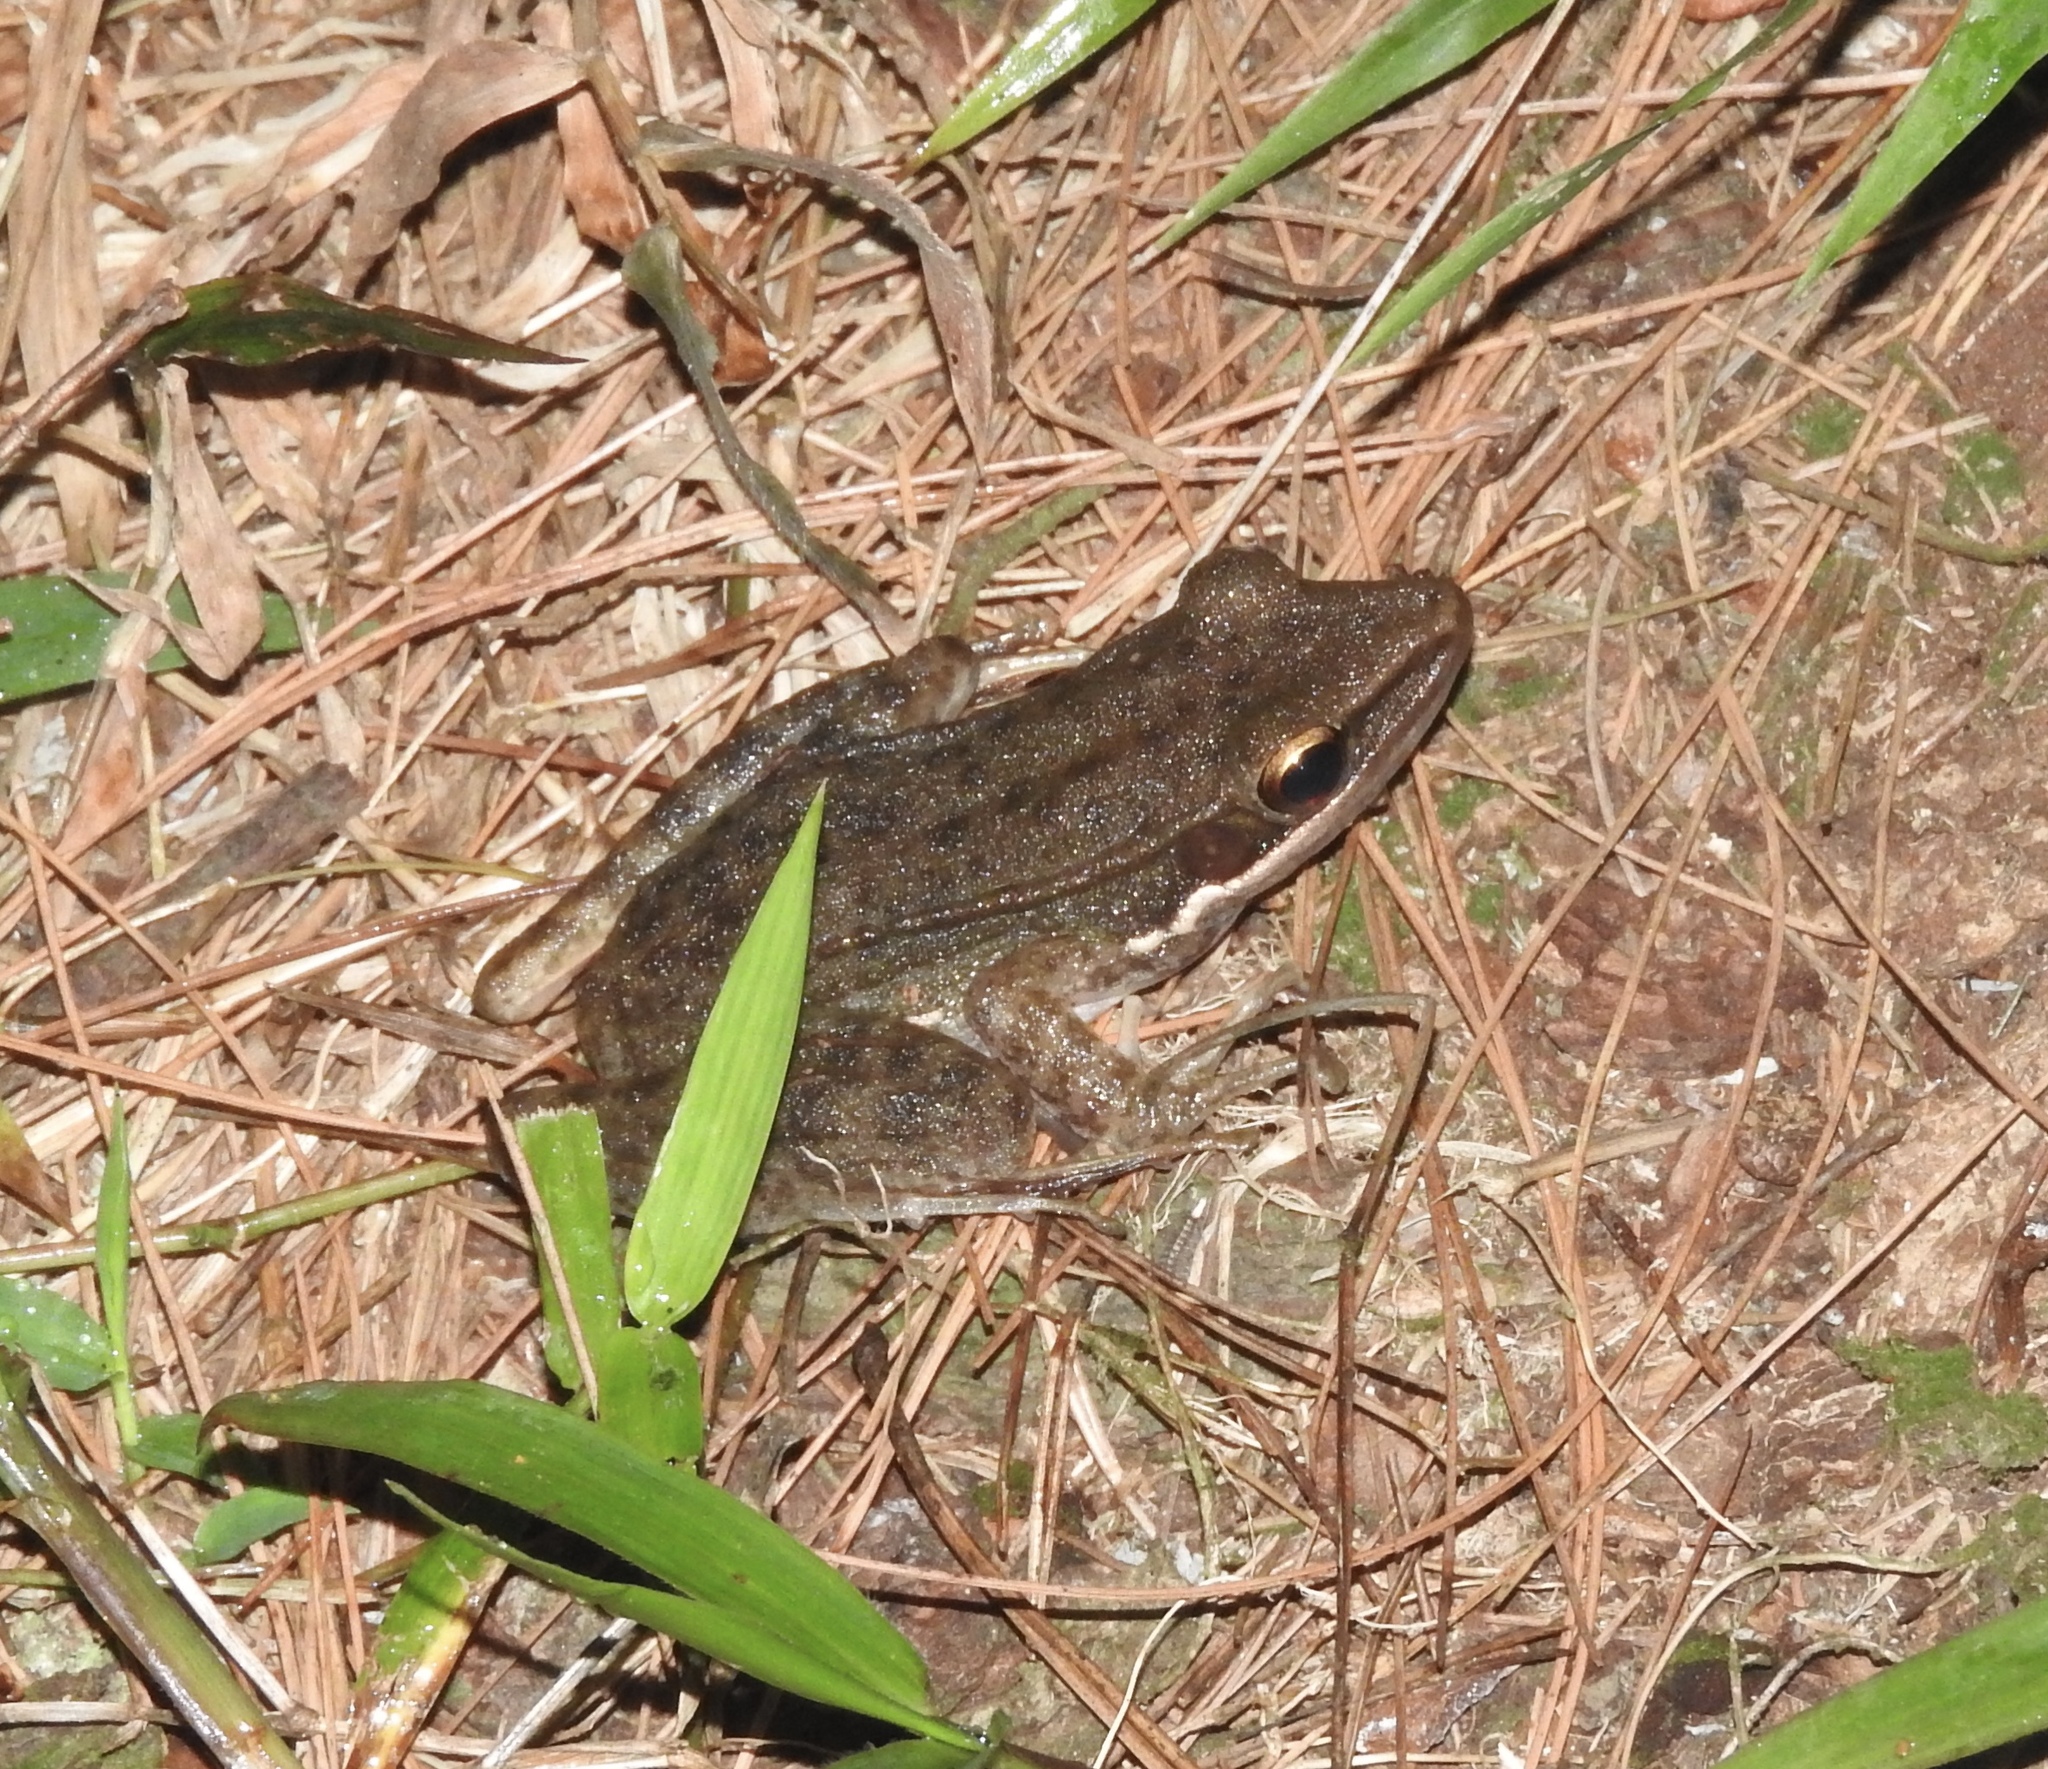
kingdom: Animalia
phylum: Chordata
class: Amphibia
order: Anura
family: Ranidae
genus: Chalcorana
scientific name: Chalcorana chalconota
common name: Schlegel's frog
